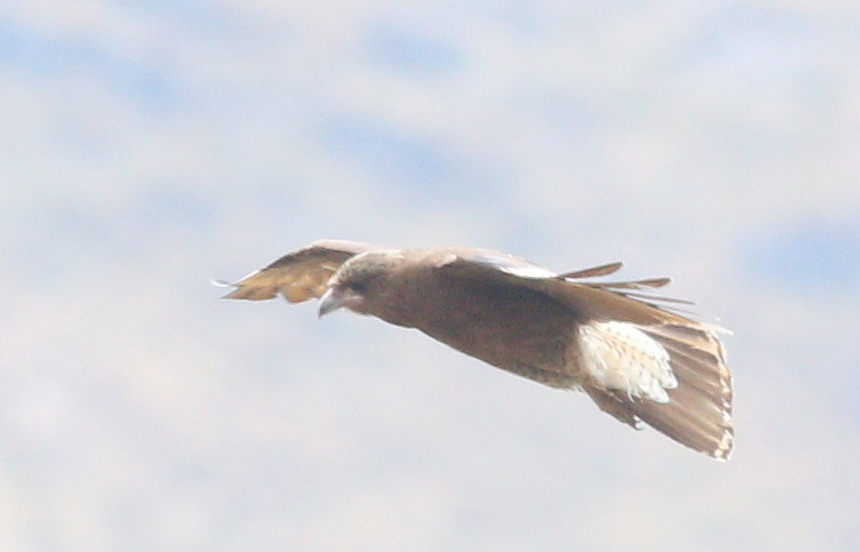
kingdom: Animalia
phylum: Chordata
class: Aves
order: Falconiformes
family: Falconidae
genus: Daptrius
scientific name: Daptrius
